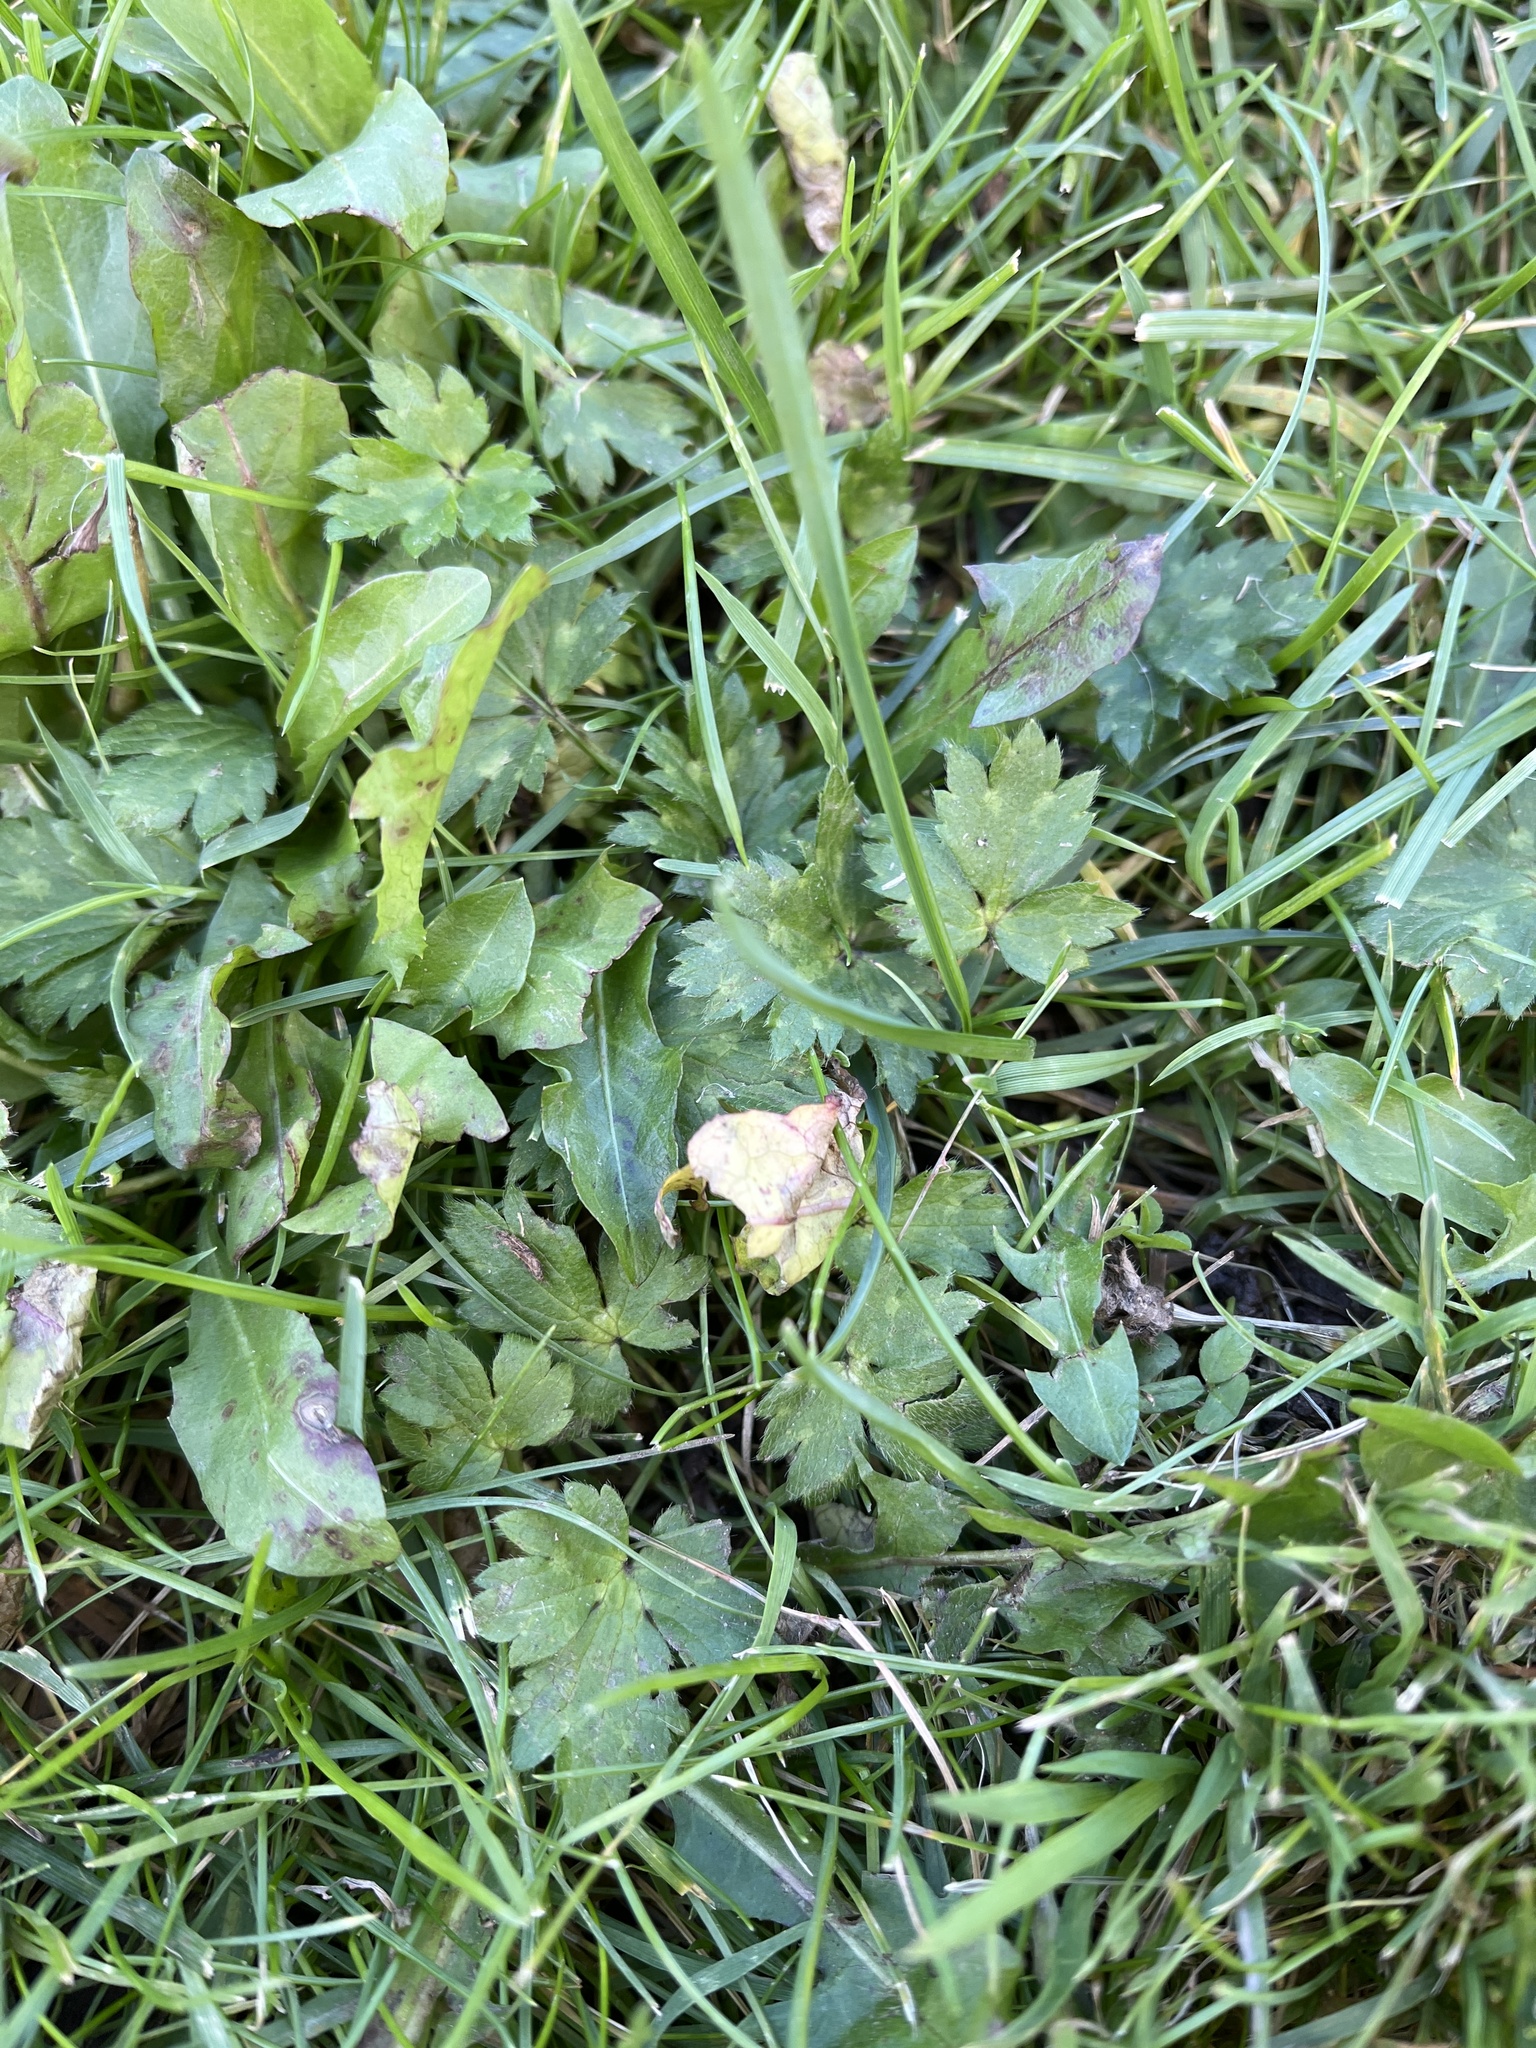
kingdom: Plantae
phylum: Tracheophyta
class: Magnoliopsida
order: Ranunculales
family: Ranunculaceae
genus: Ranunculus
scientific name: Ranunculus repens
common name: Creeping buttercup
